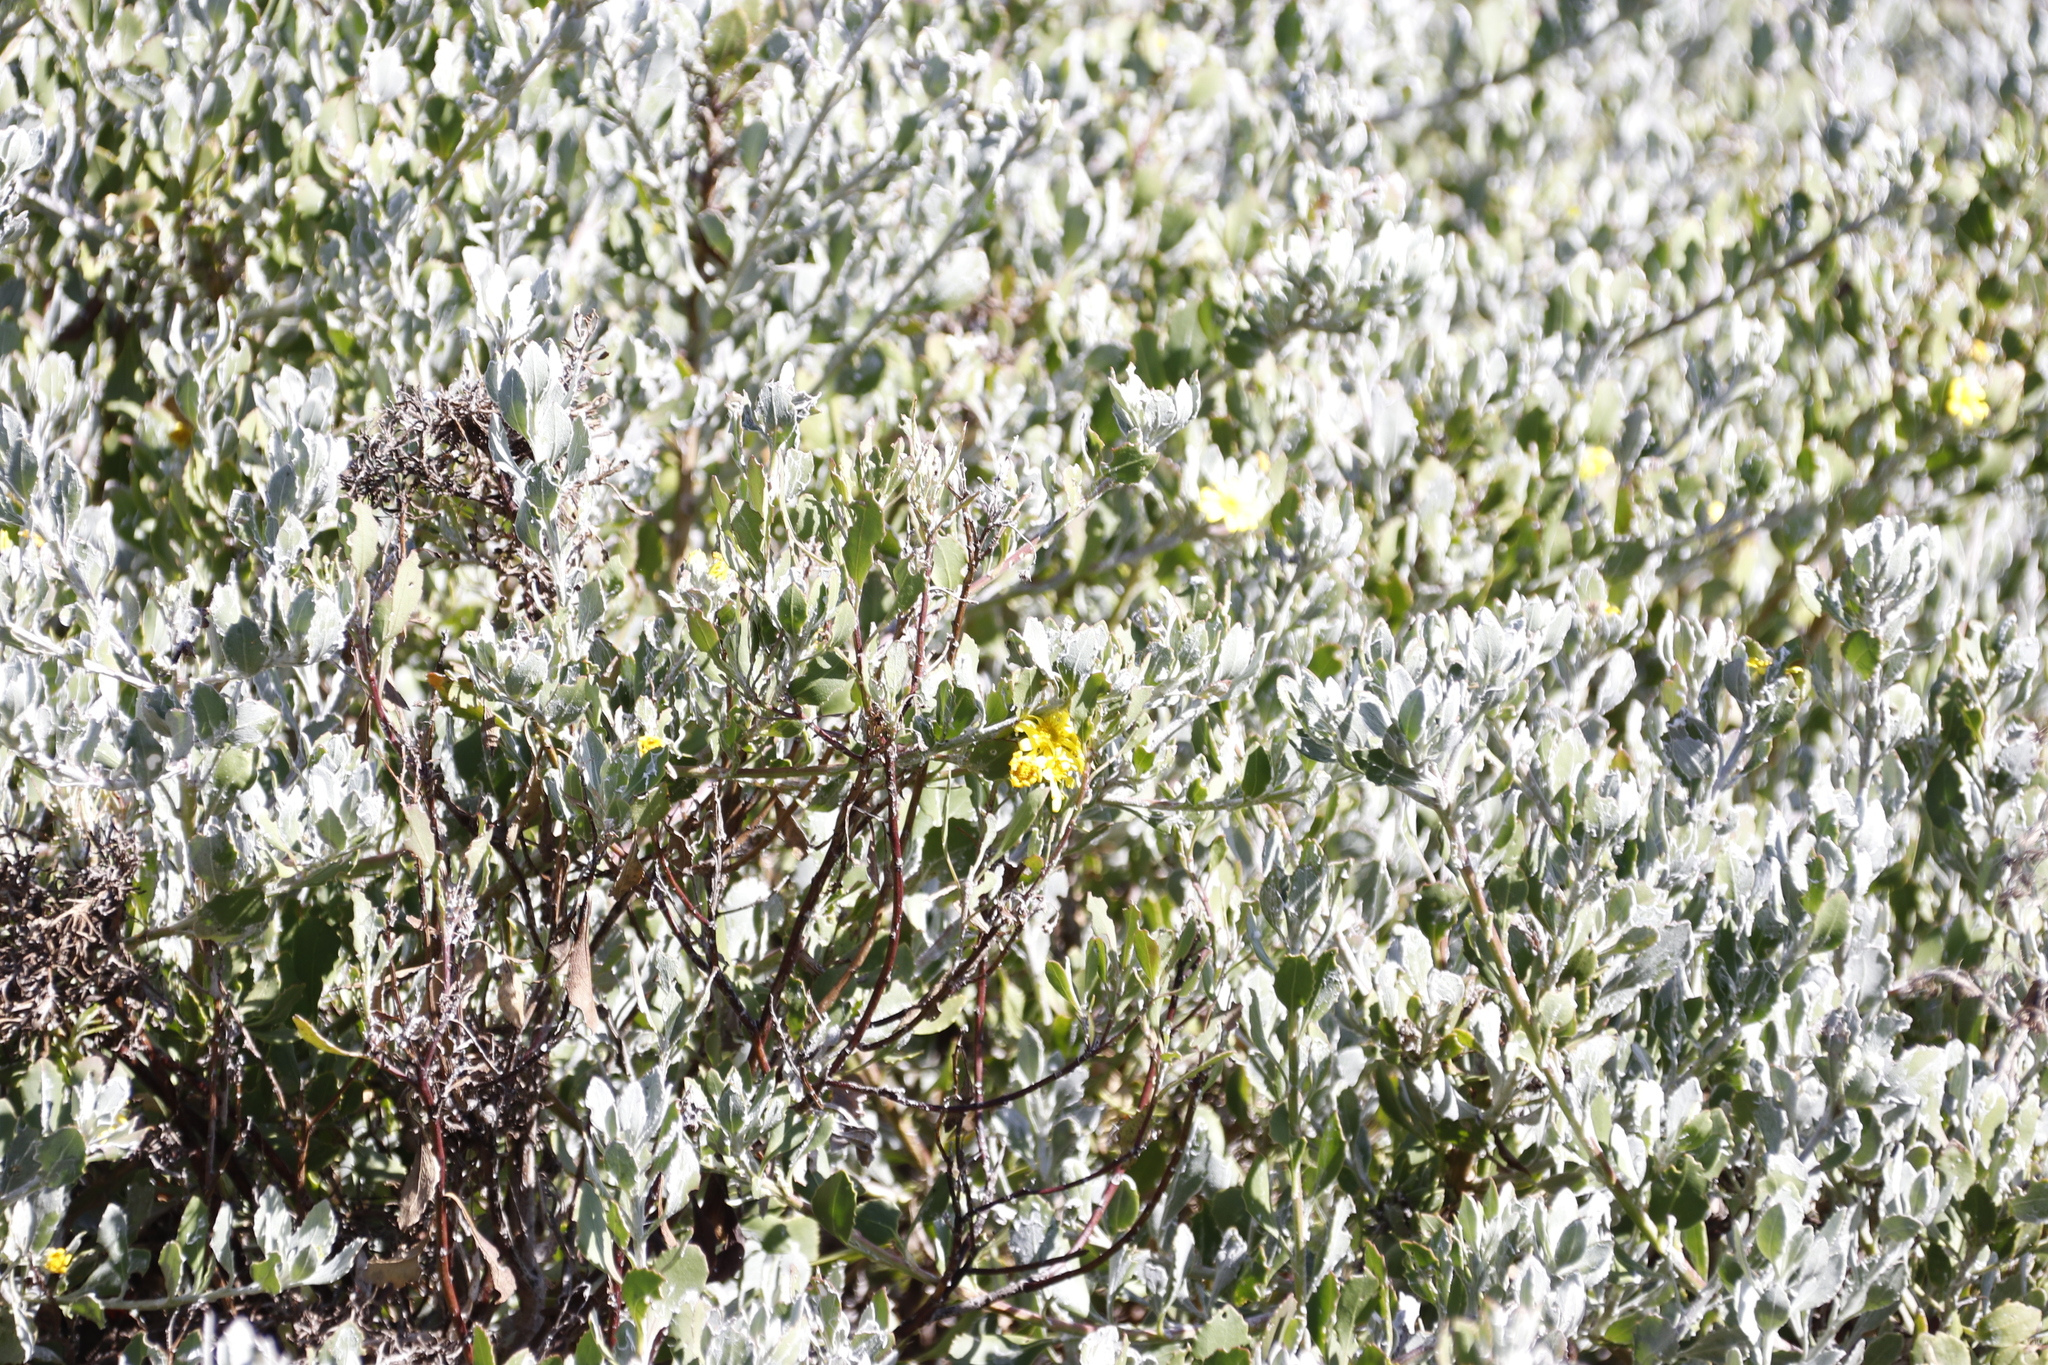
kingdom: Plantae
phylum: Tracheophyta
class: Magnoliopsida
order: Asterales
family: Asteraceae
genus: Osteospermum
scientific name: Osteospermum incanum
